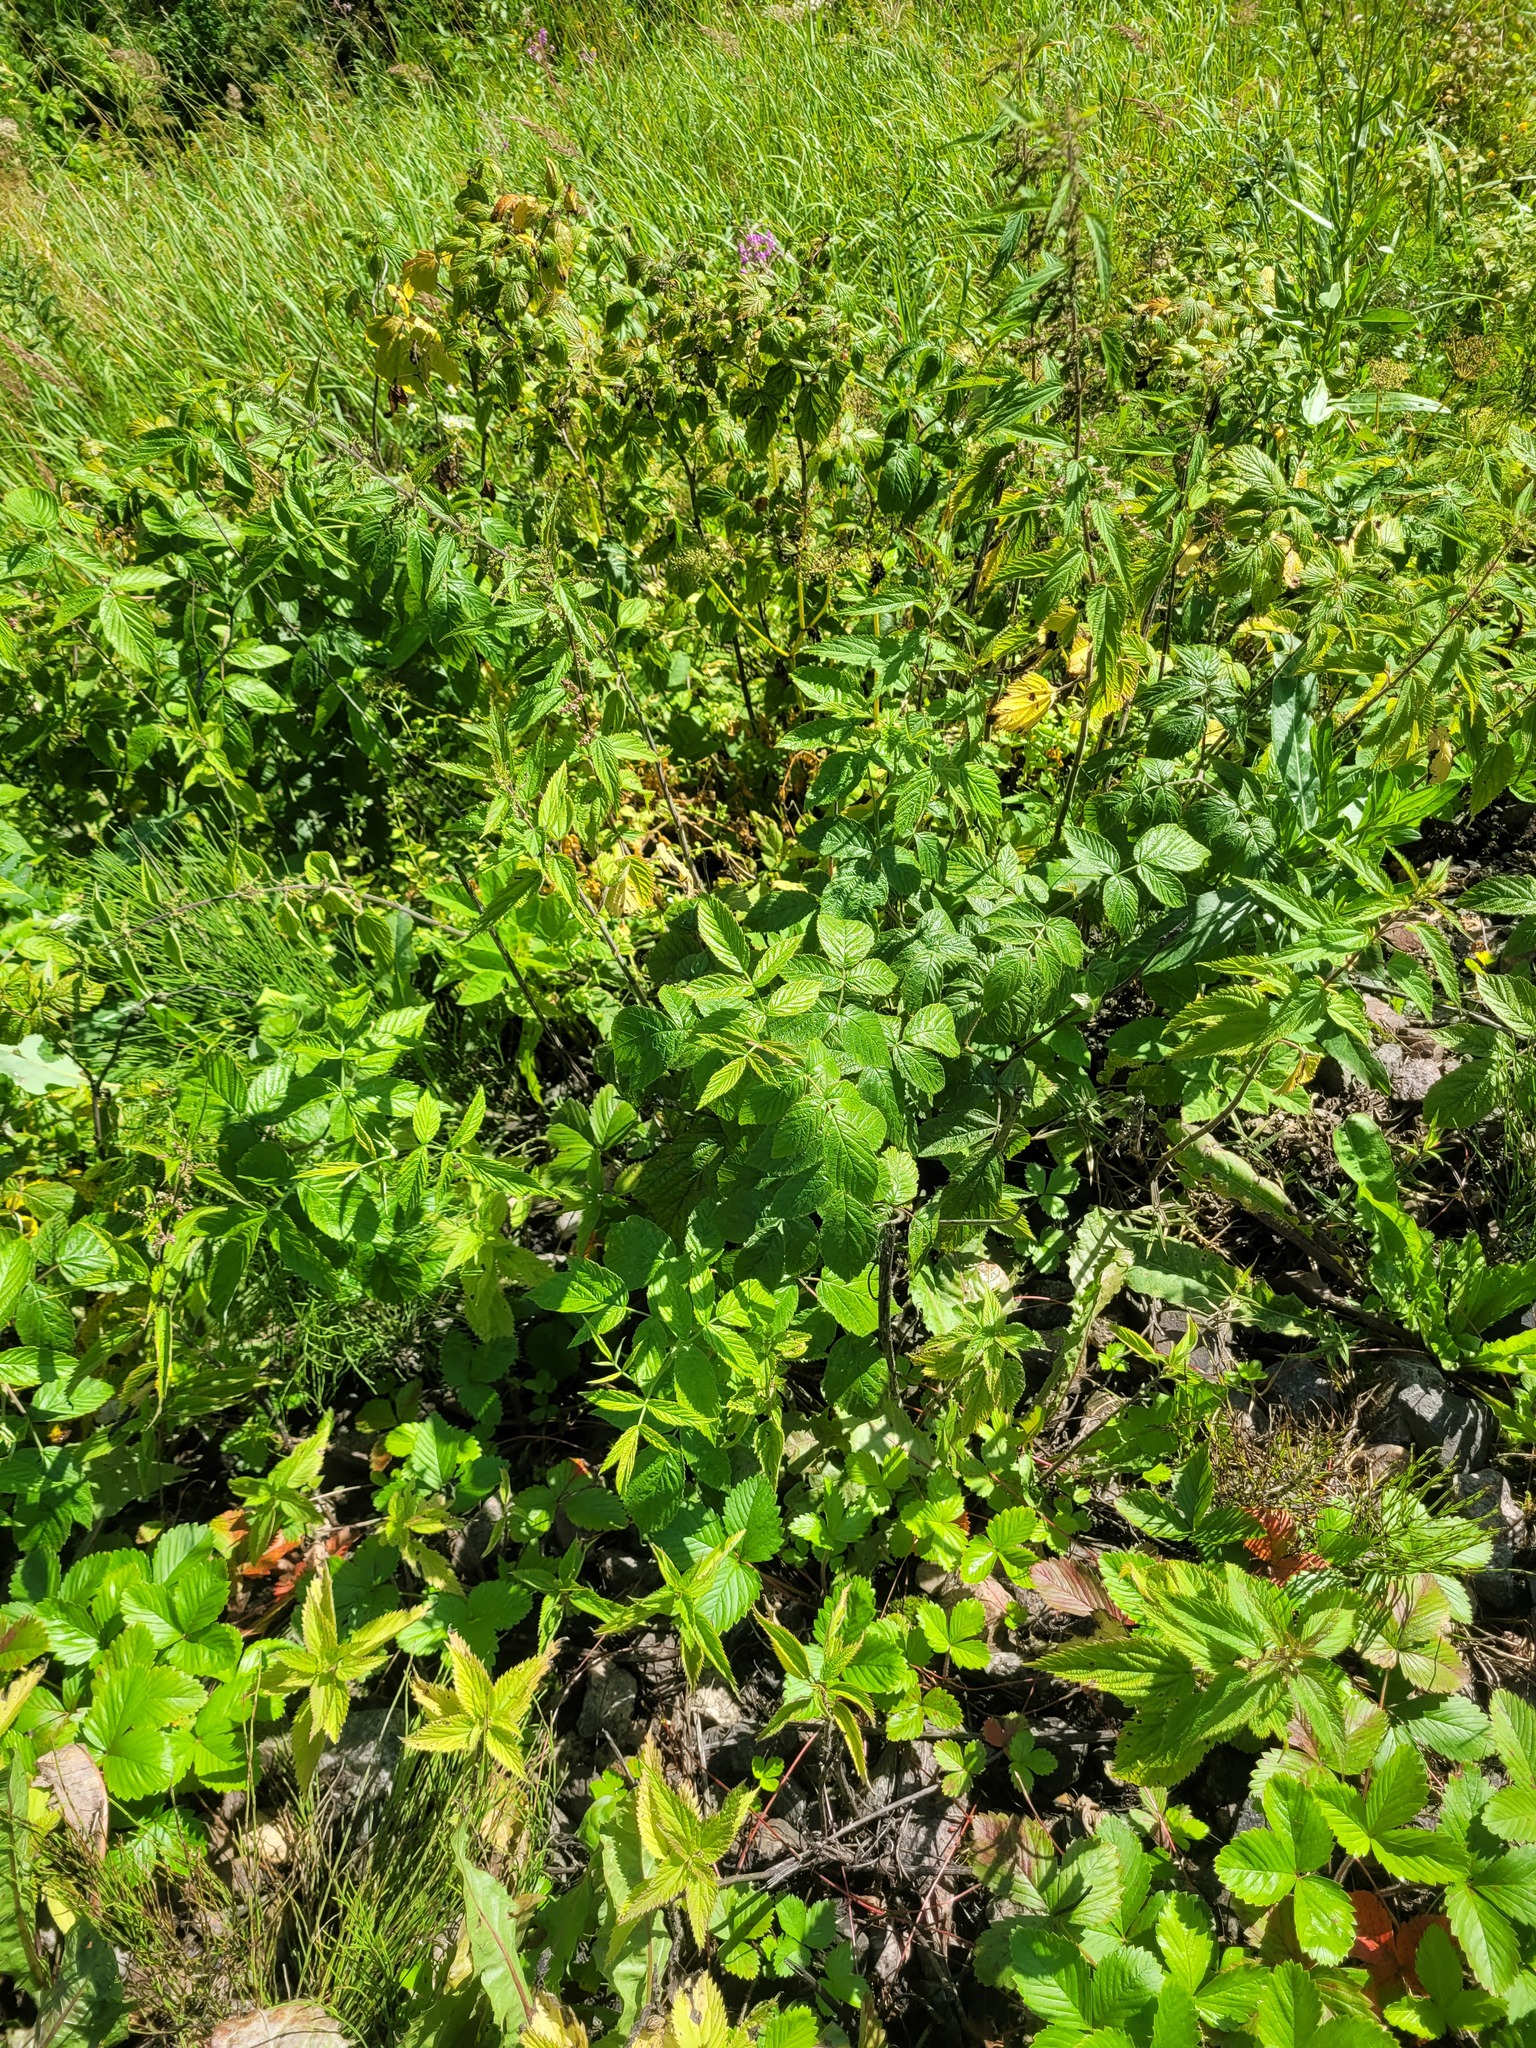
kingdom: Plantae
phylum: Tracheophyta
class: Magnoliopsida
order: Rosales
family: Rosaceae
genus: Rubus
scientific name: Rubus idaeus
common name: Raspberry
